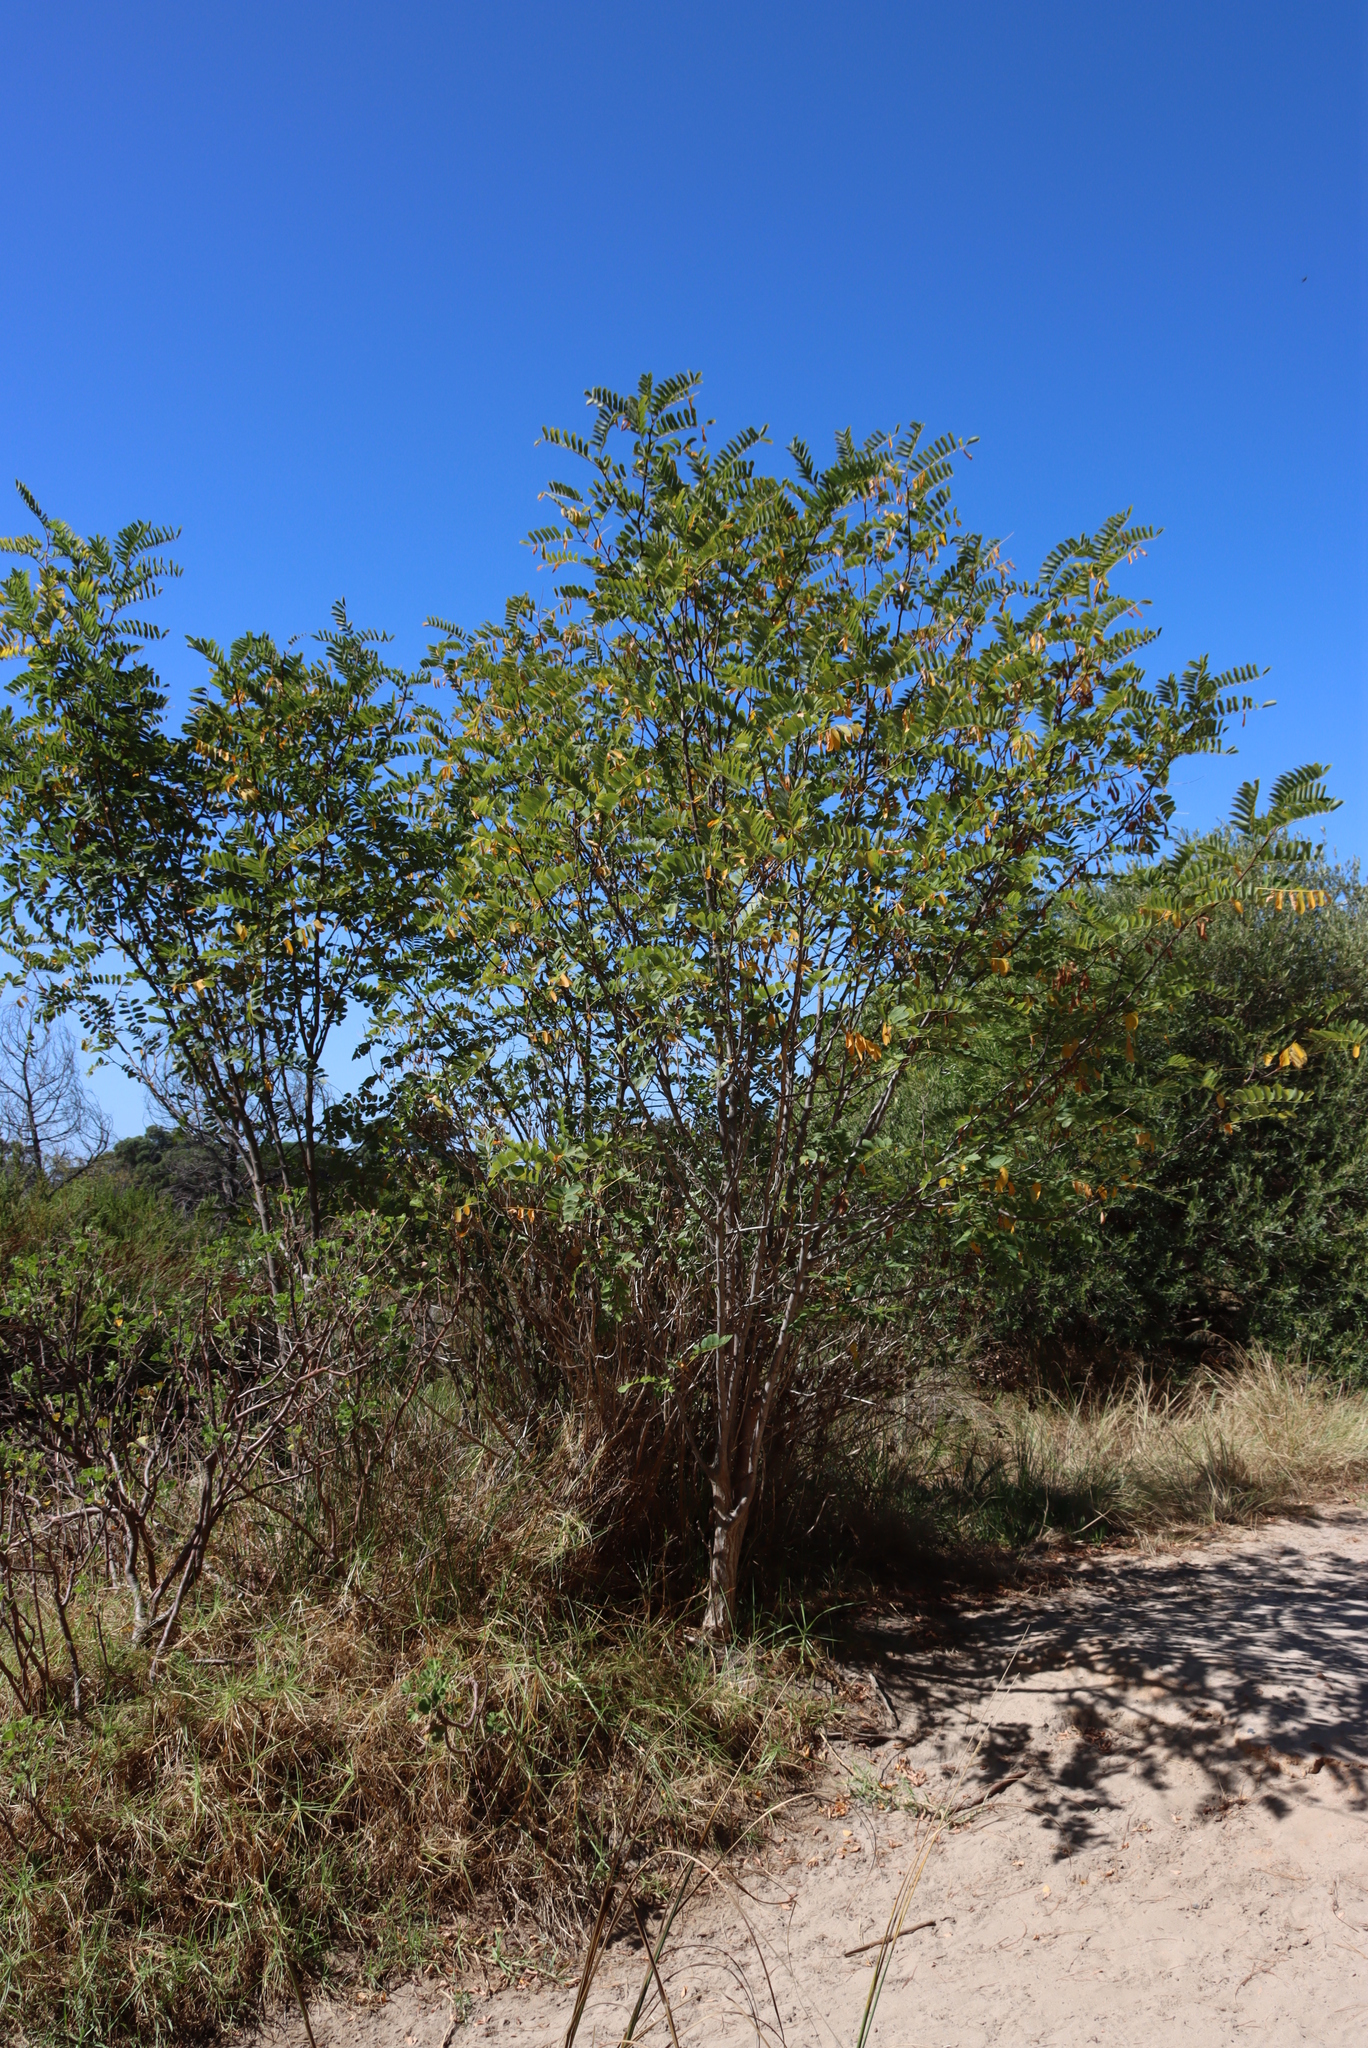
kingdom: Plantae
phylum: Tracheophyta
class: Magnoliopsida
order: Fabales
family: Fabaceae
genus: Robinia
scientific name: Robinia pseudoacacia
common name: Black locust
